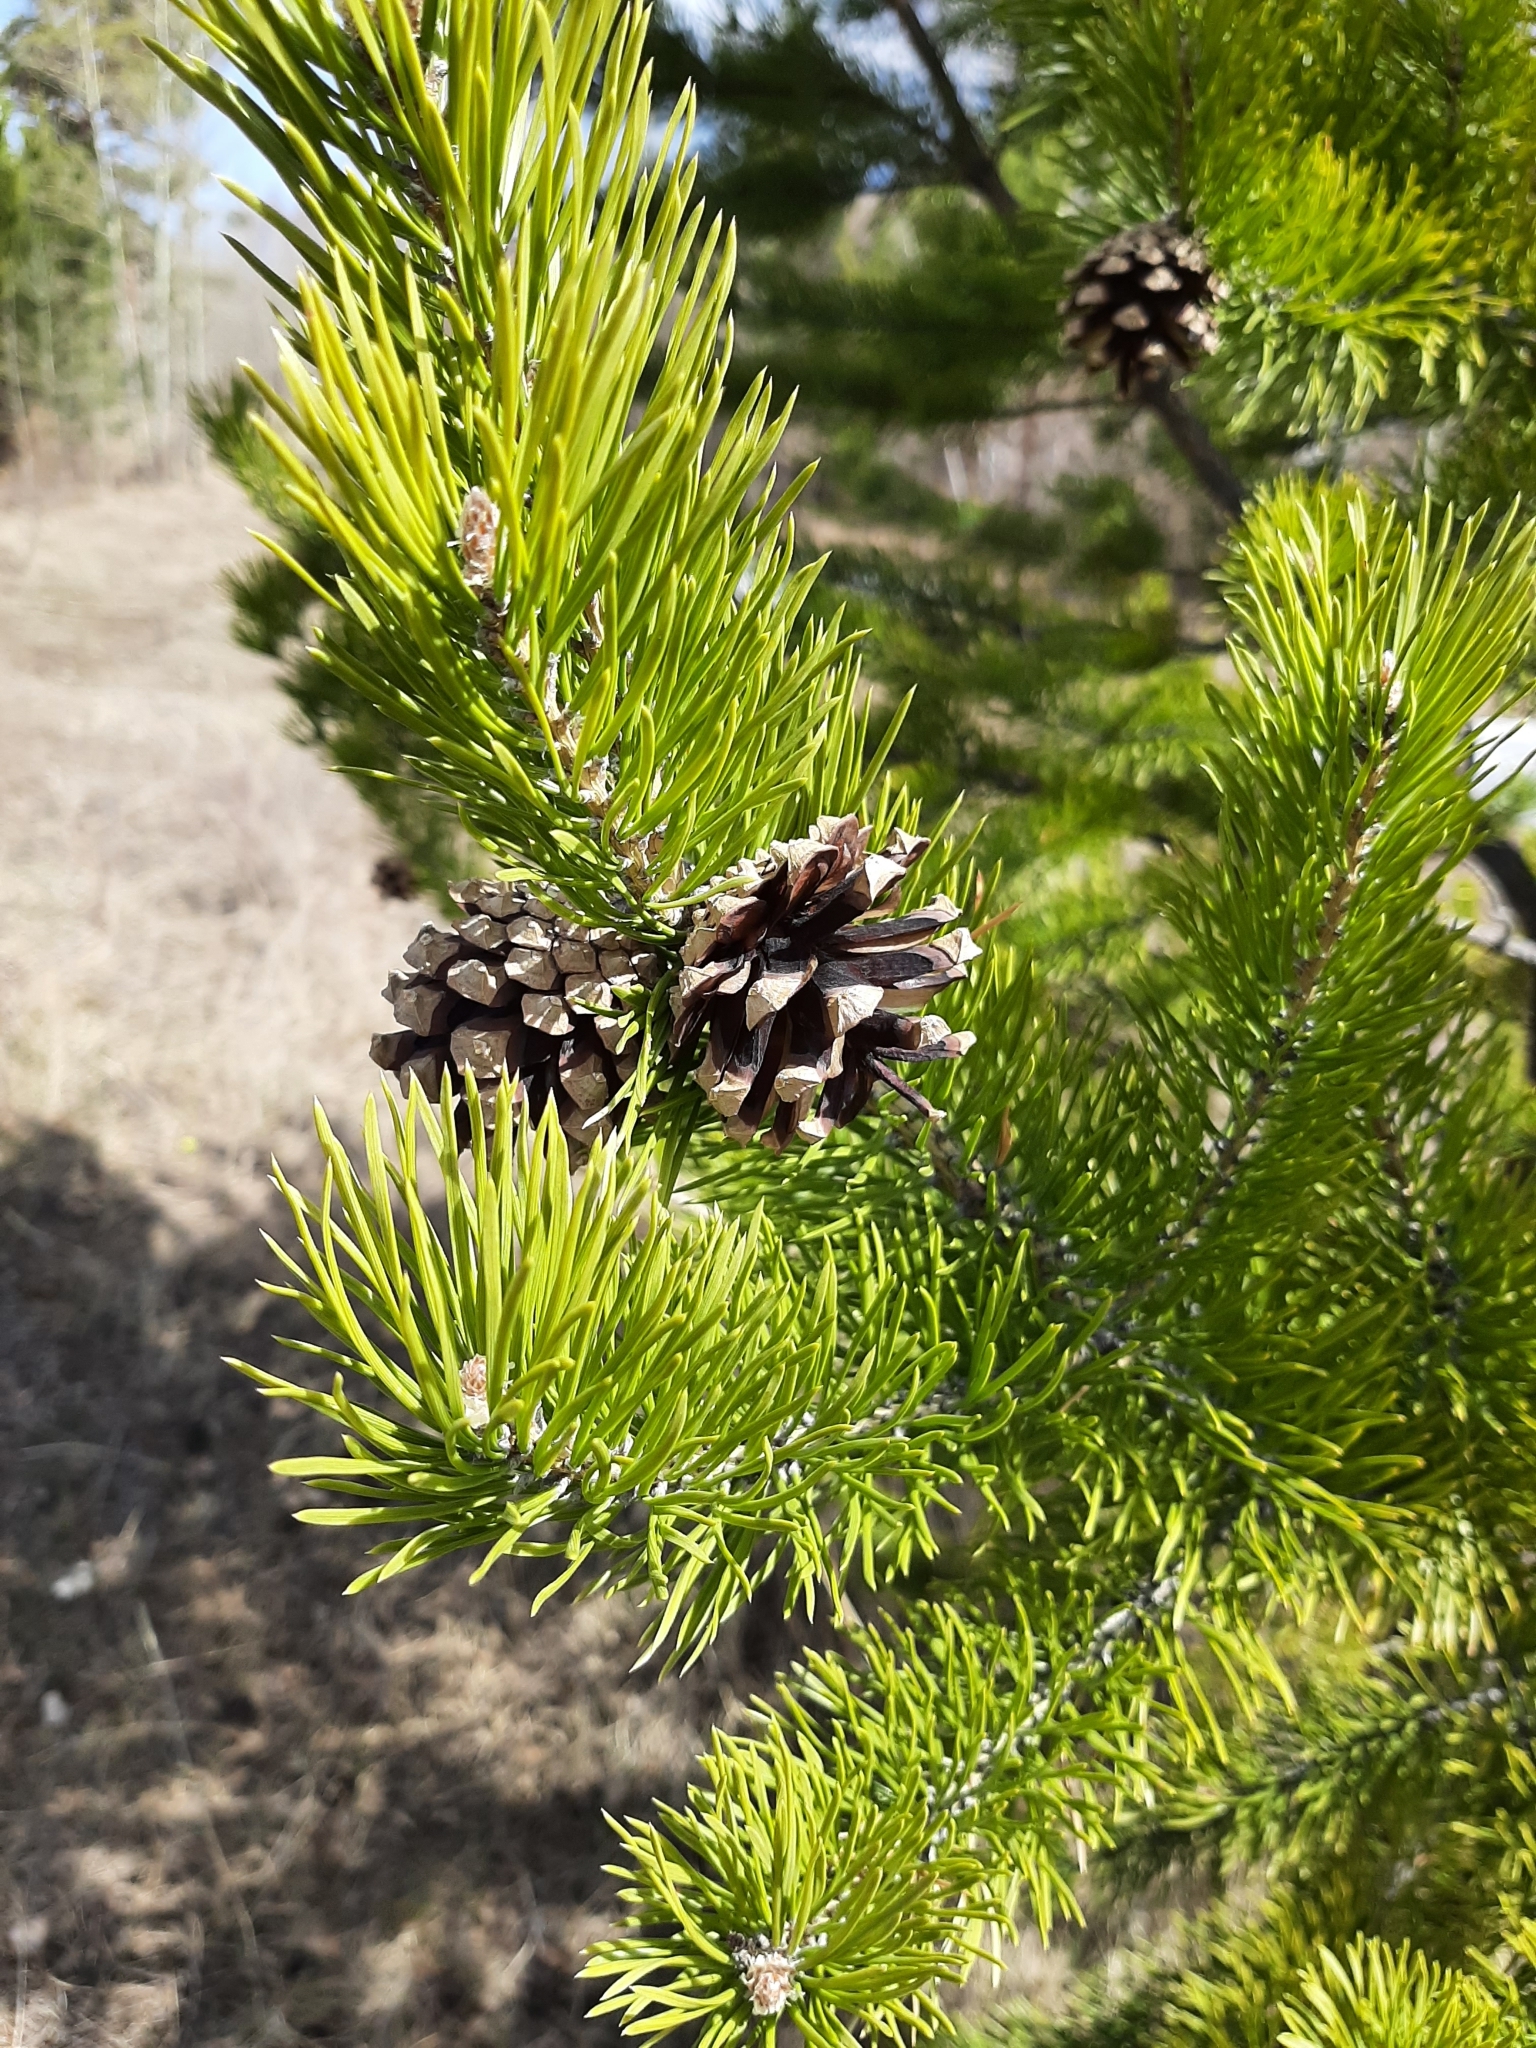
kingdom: Plantae
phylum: Tracheophyta
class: Pinopsida
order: Pinales
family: Pinaceae
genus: Pinus
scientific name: Pinus sylvestris
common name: Scots pine
